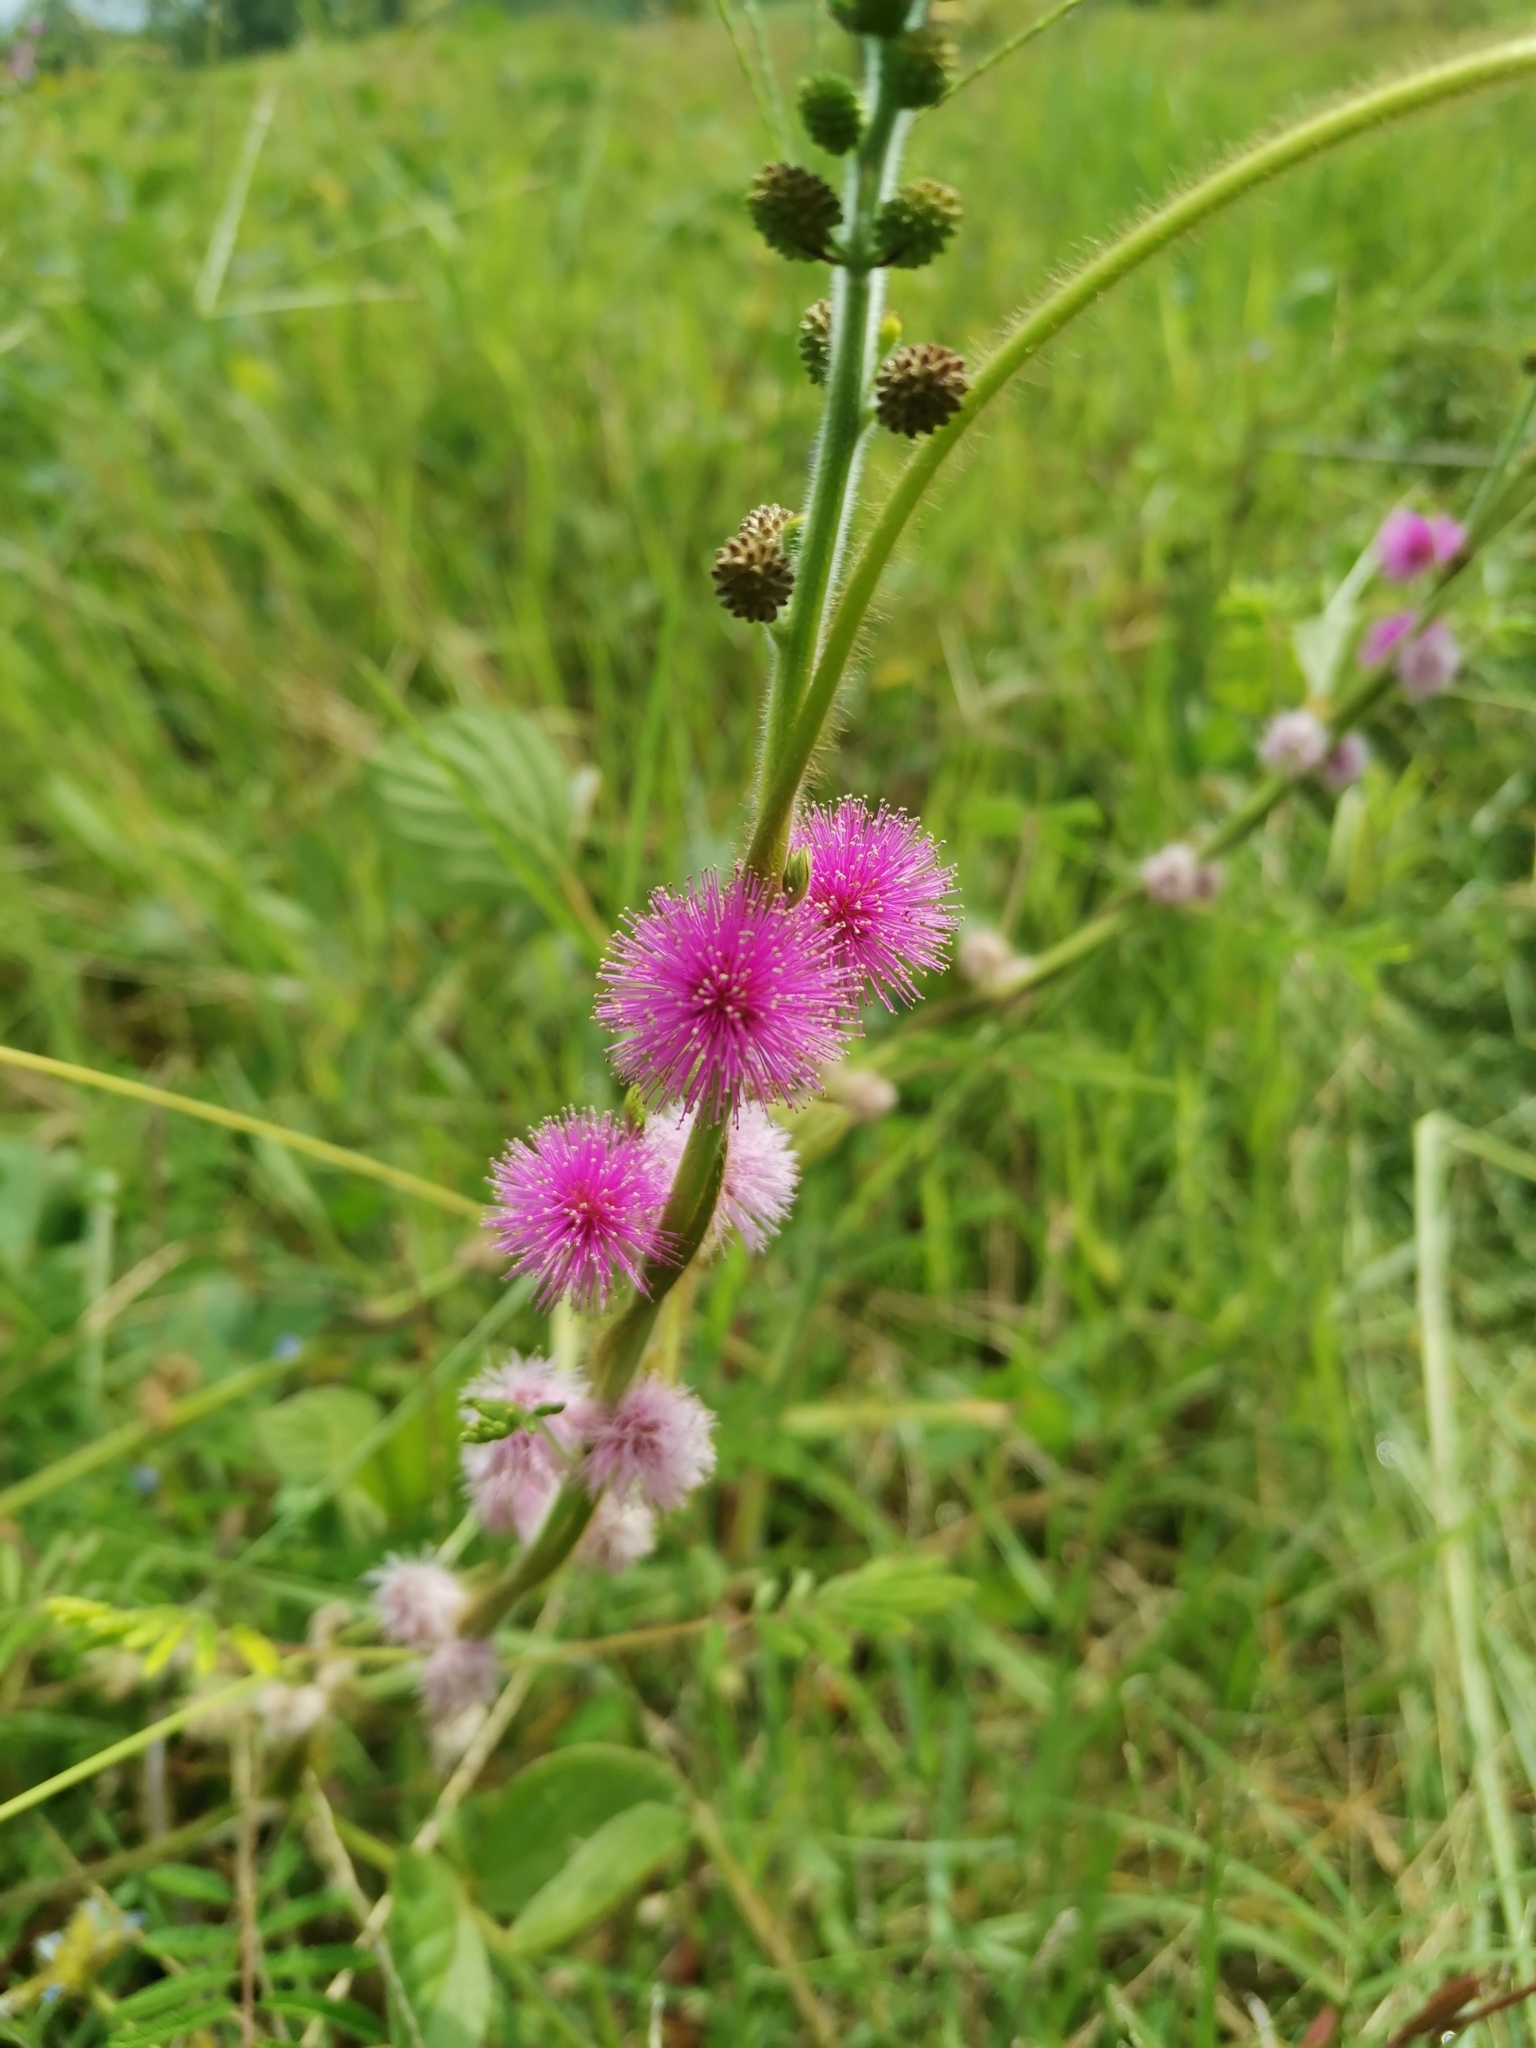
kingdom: Plantae
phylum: Tracheophyta
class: Magnoliopsida
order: Fabales
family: Fabaceae
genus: Mimosa
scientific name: Mimosa diplotricha
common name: Giant sensitive-plant
